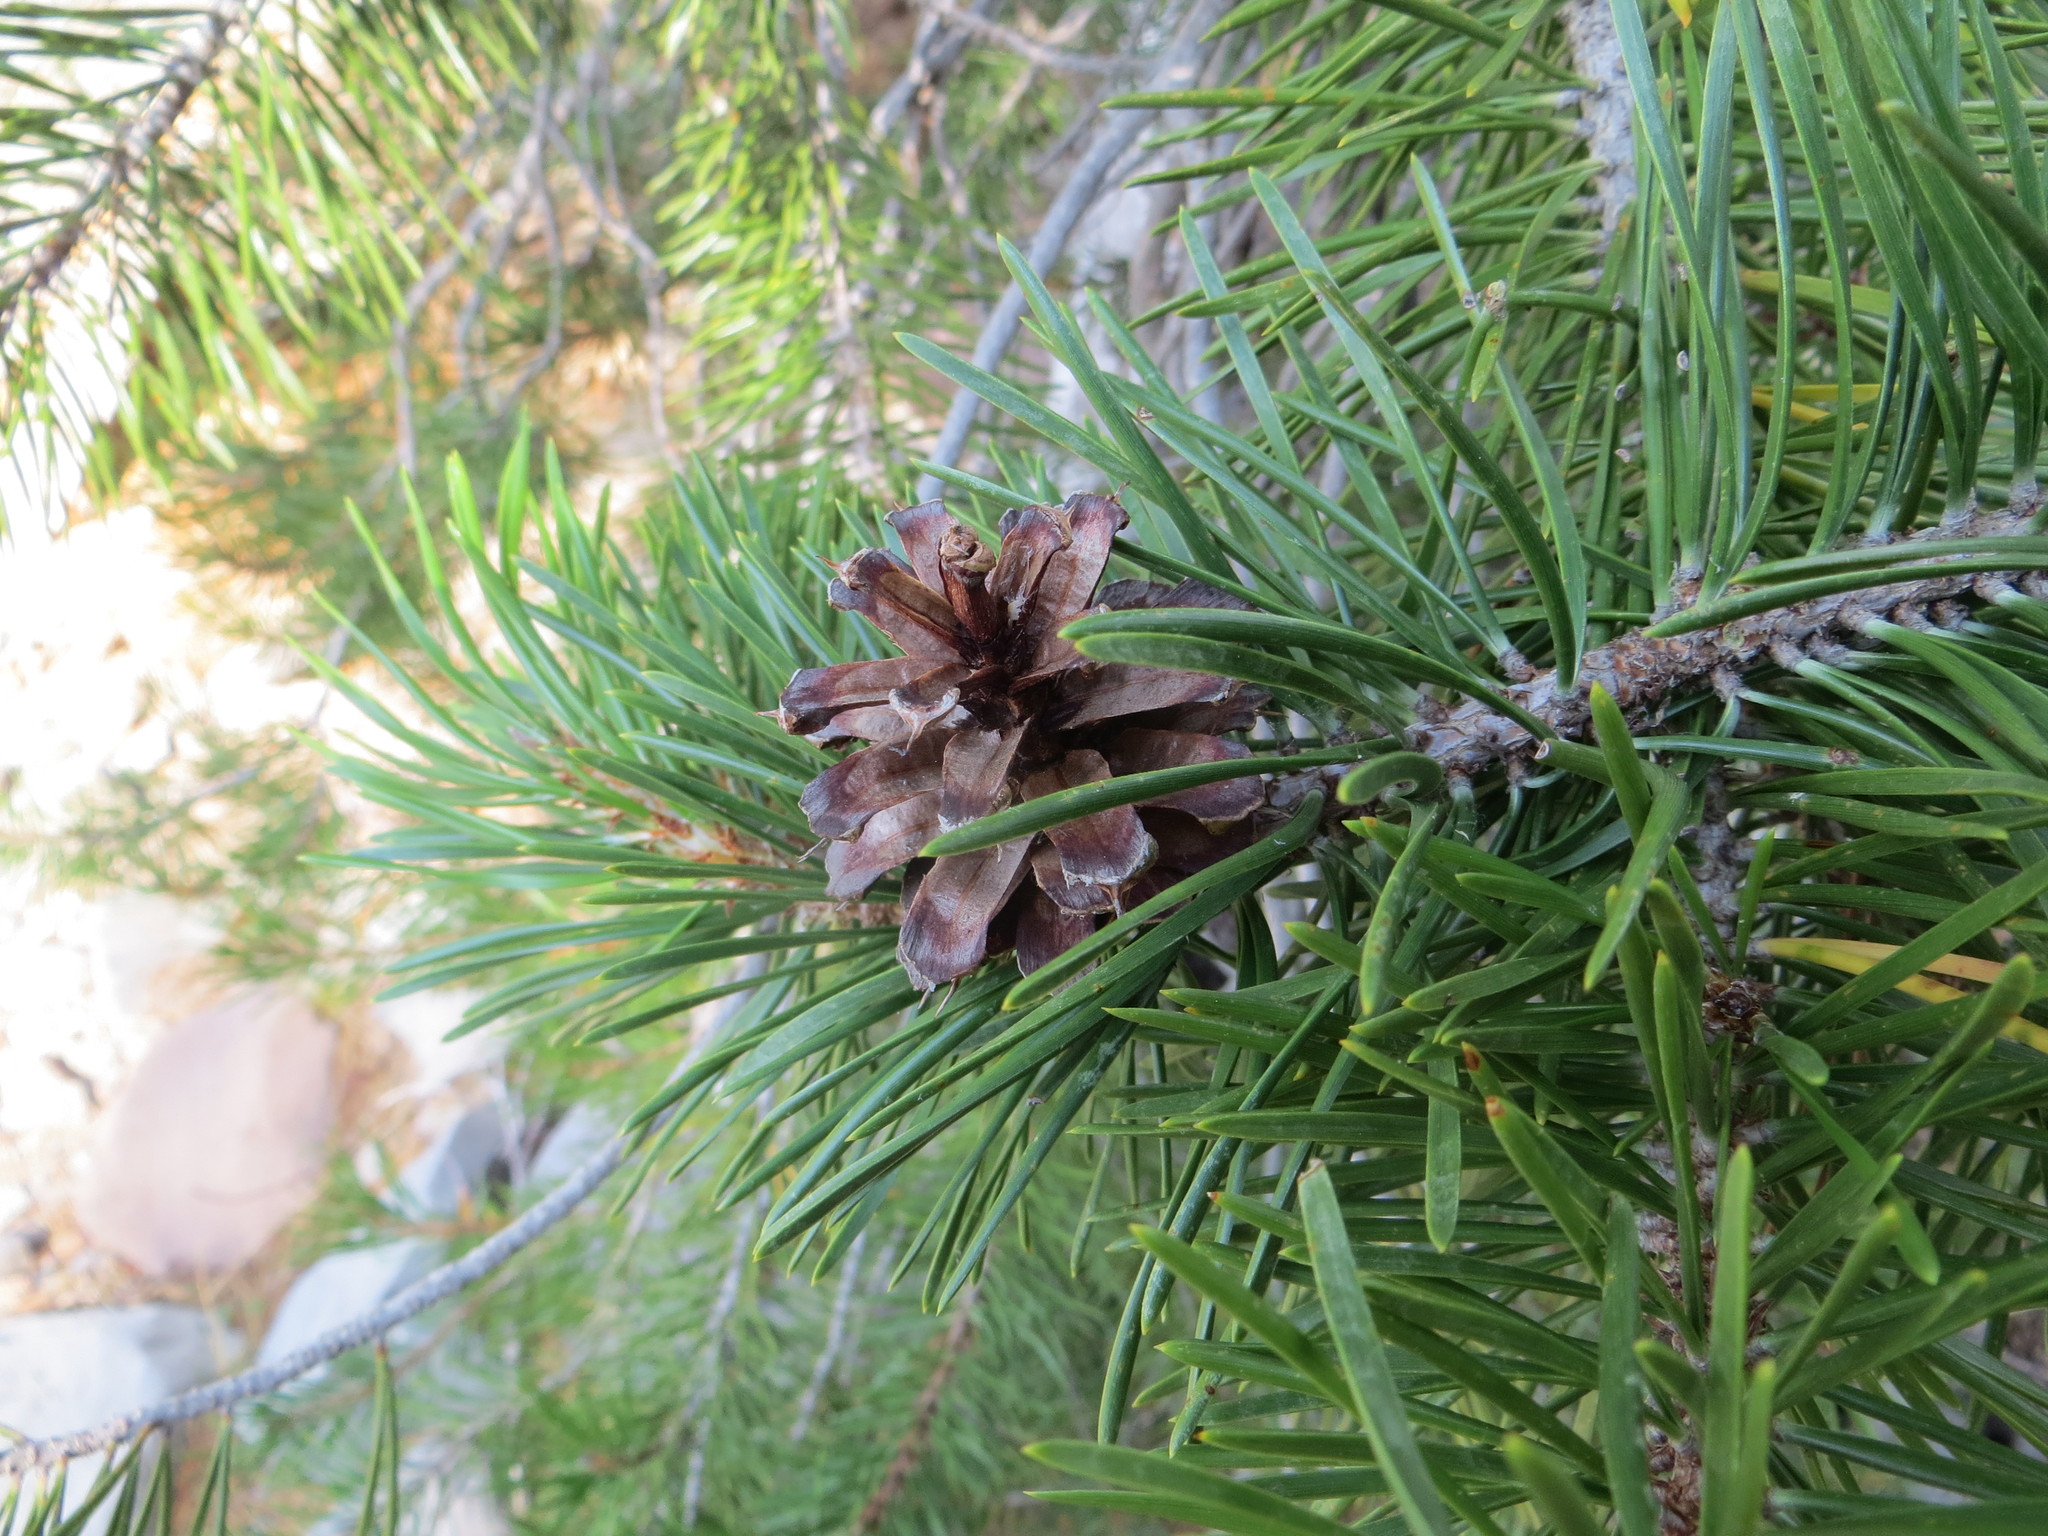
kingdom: Plantae
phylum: Tracheophyta
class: Pinopsida
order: Pinales
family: Pinaceae
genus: Pinus
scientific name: Pinus contorta
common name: Lodgepole pine
